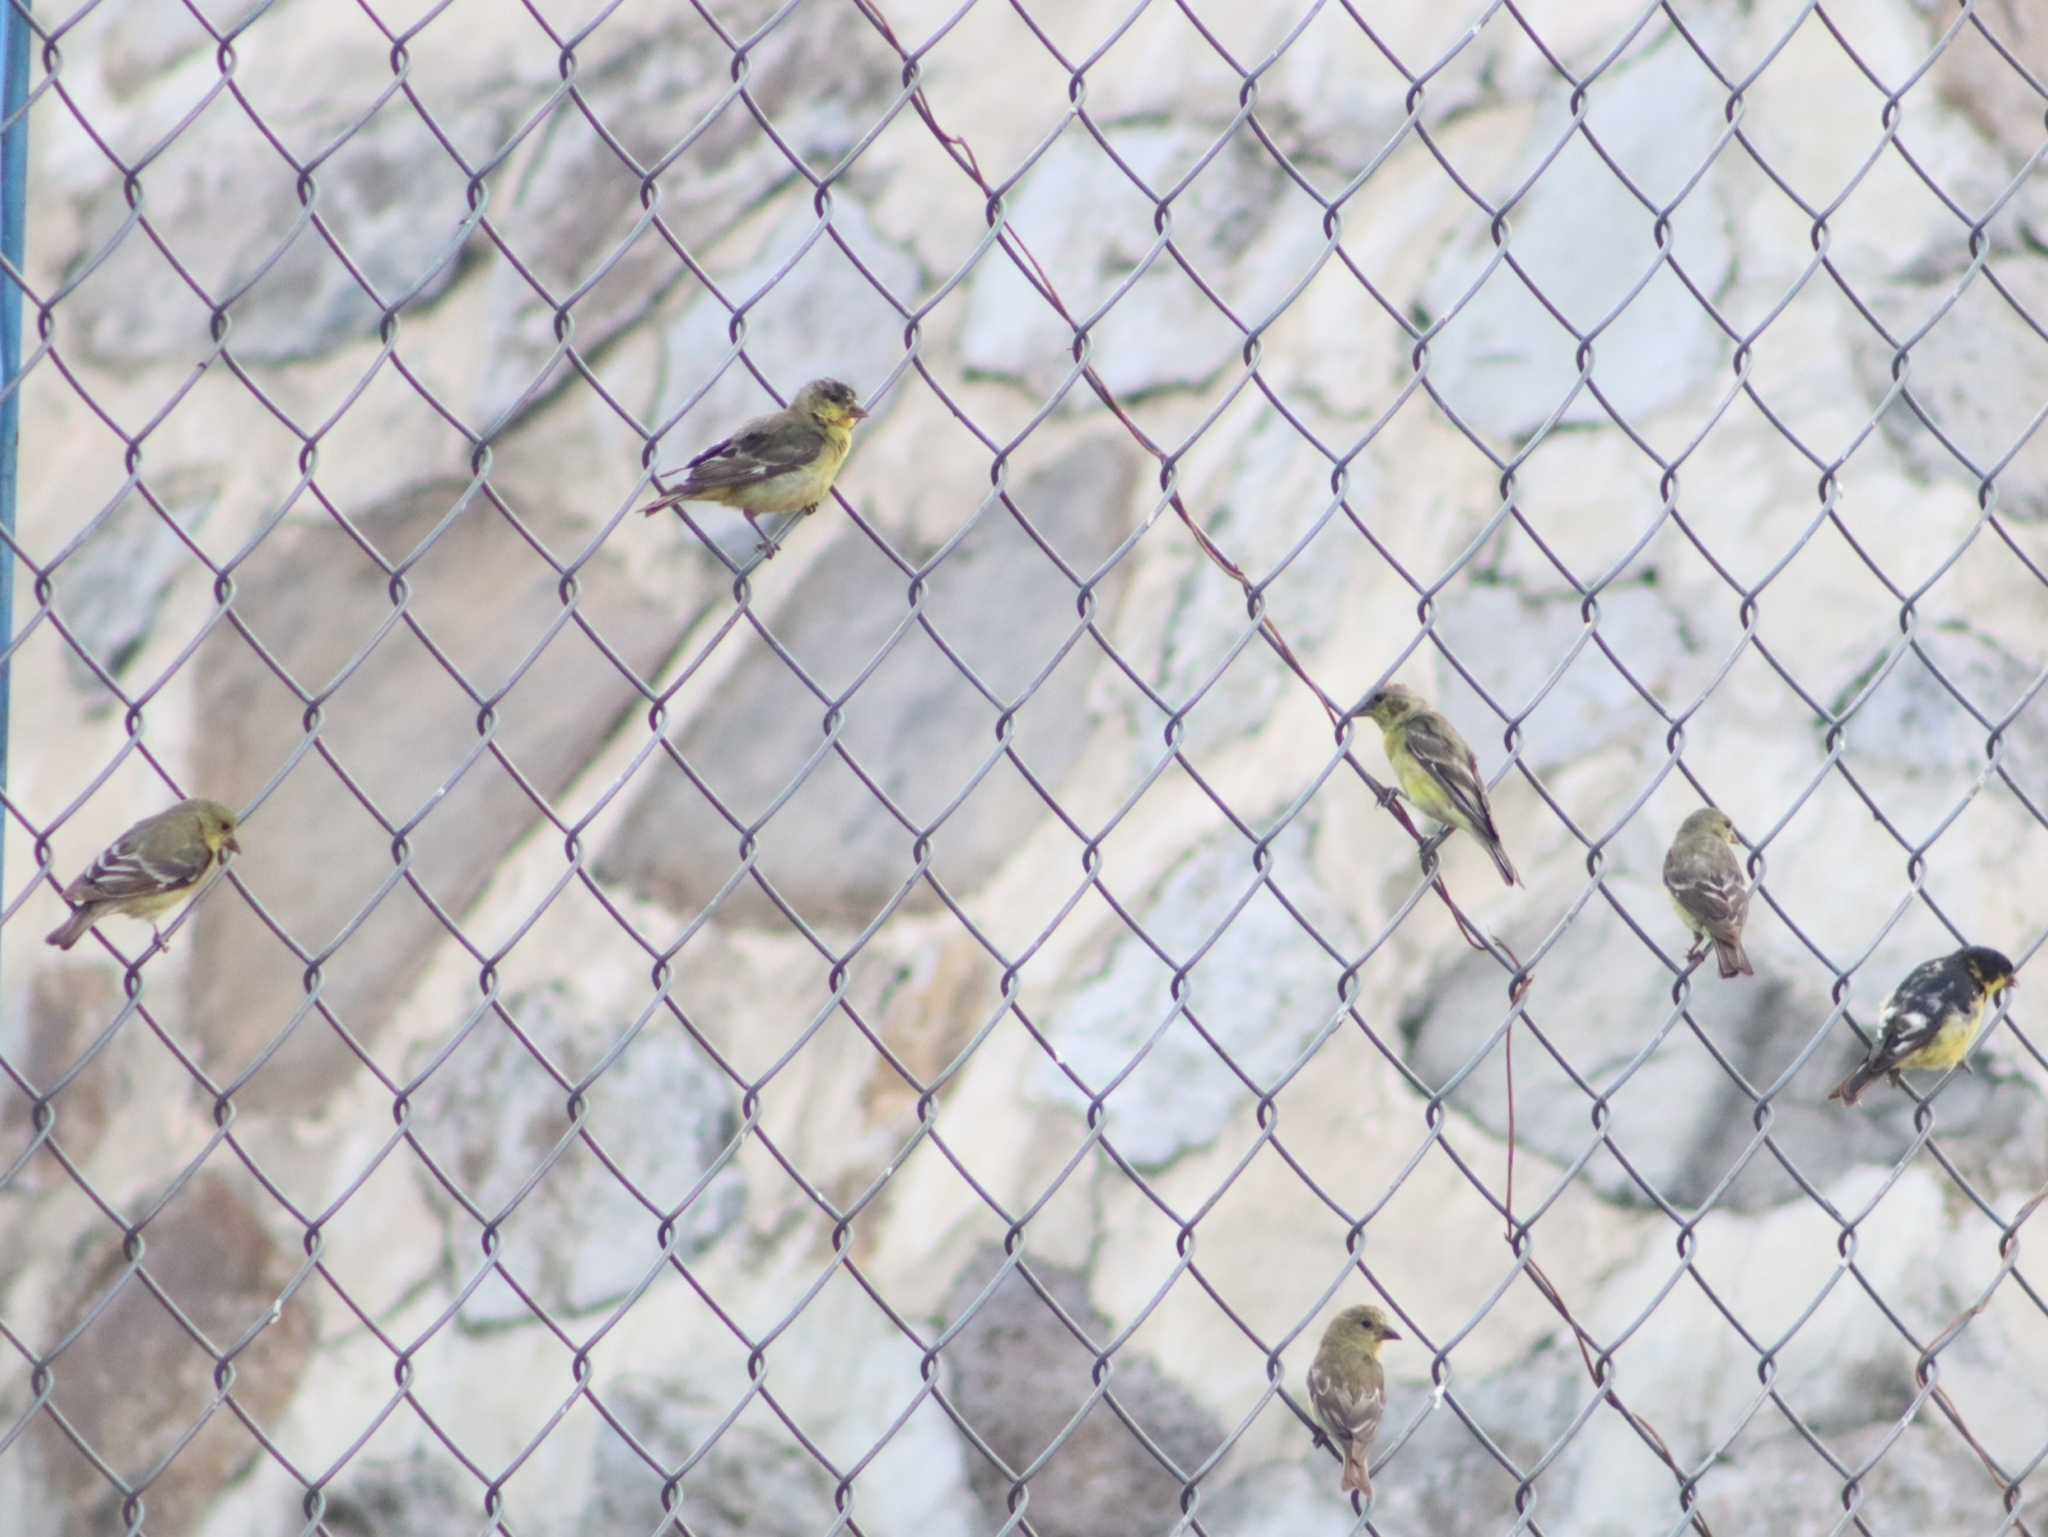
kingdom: Animalia
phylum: Chordata
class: Aves
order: Passeriformes
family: Fringillidae
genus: Spinus
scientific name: Spinus psaltria
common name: Lesser goldfinch
